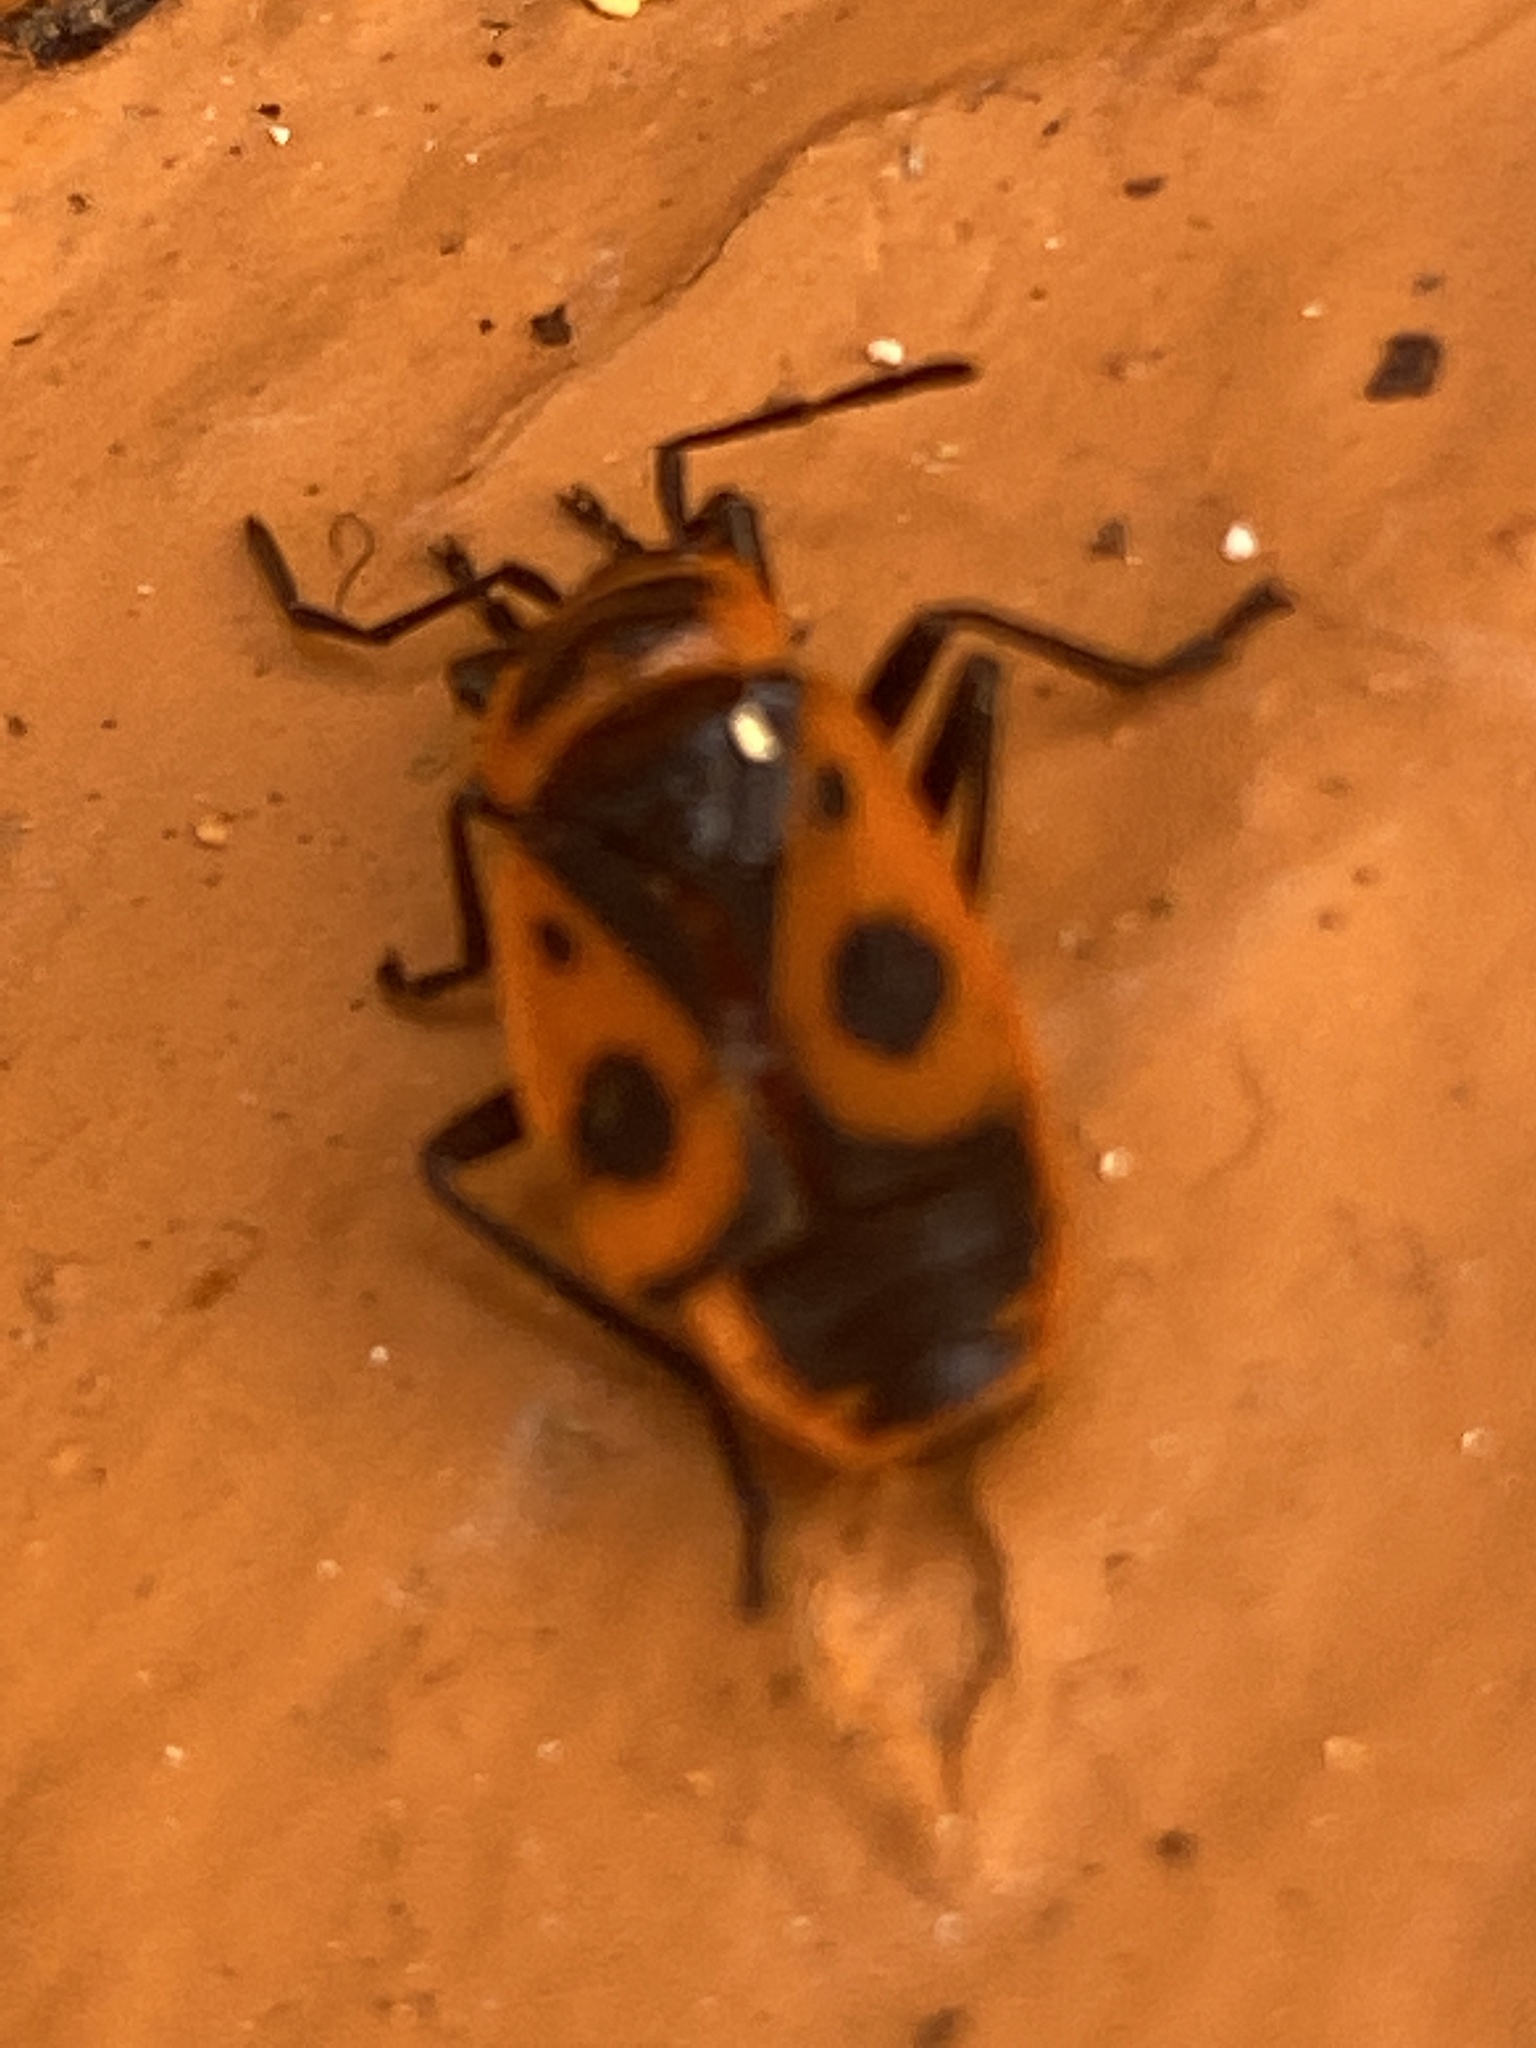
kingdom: Animalia
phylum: Arthropoda
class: Insecta
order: Hemiptera
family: Pyrrhocoridae
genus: Pyrrhocoris
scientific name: Pyrrhocoris apterus
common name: Firebug
